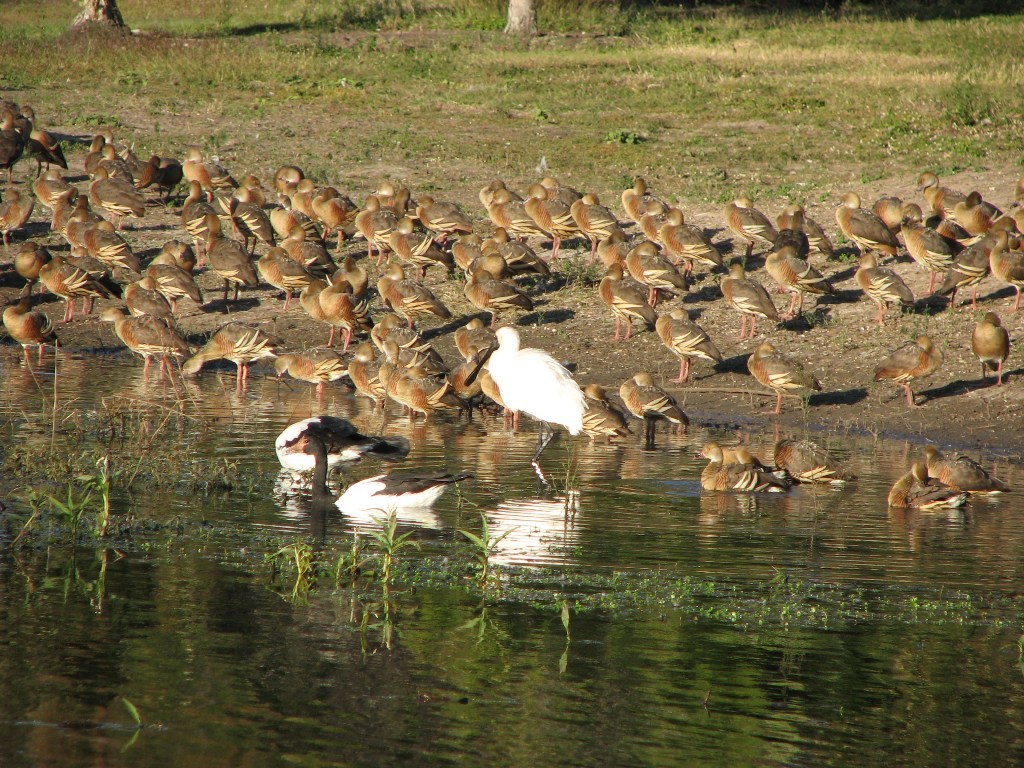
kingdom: Animalia
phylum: Chordata
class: Aves
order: Anseriformes
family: Anatidae
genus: Dendrocygna
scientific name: Dendrocygna eytoni
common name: Plumed whistling-duck
